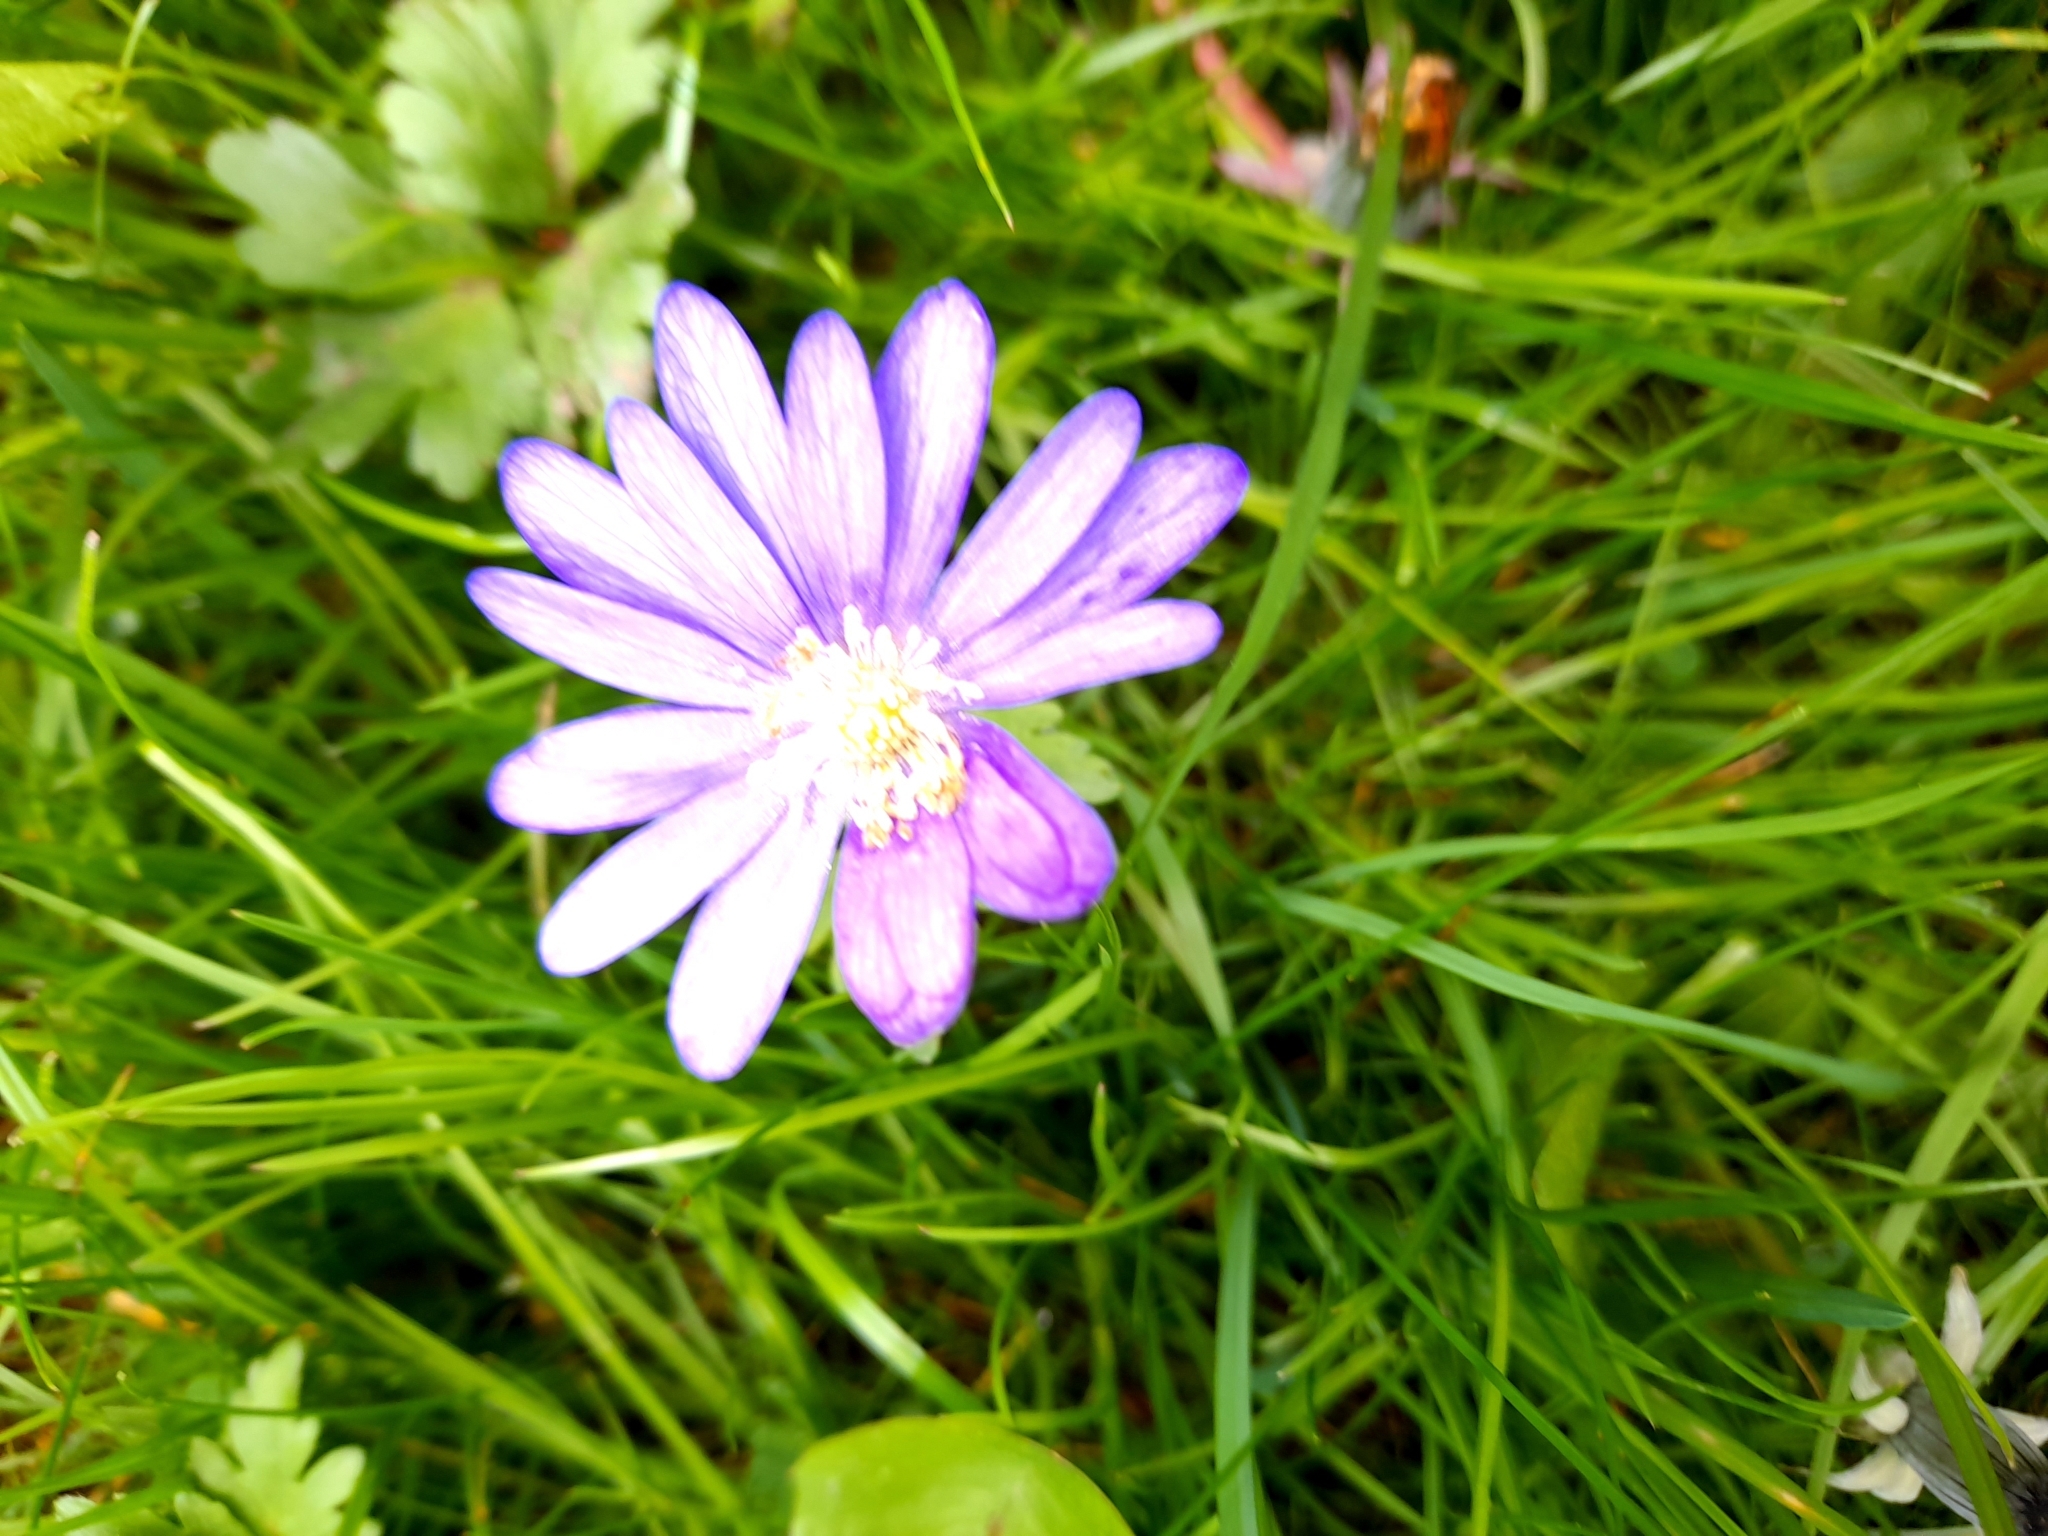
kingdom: Plantae
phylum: Tracheophyta
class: Magnoliopsida
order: Ranunculales
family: Ranunculaceae
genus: Anemone
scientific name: Anemone blanda
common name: Balkan anemone
